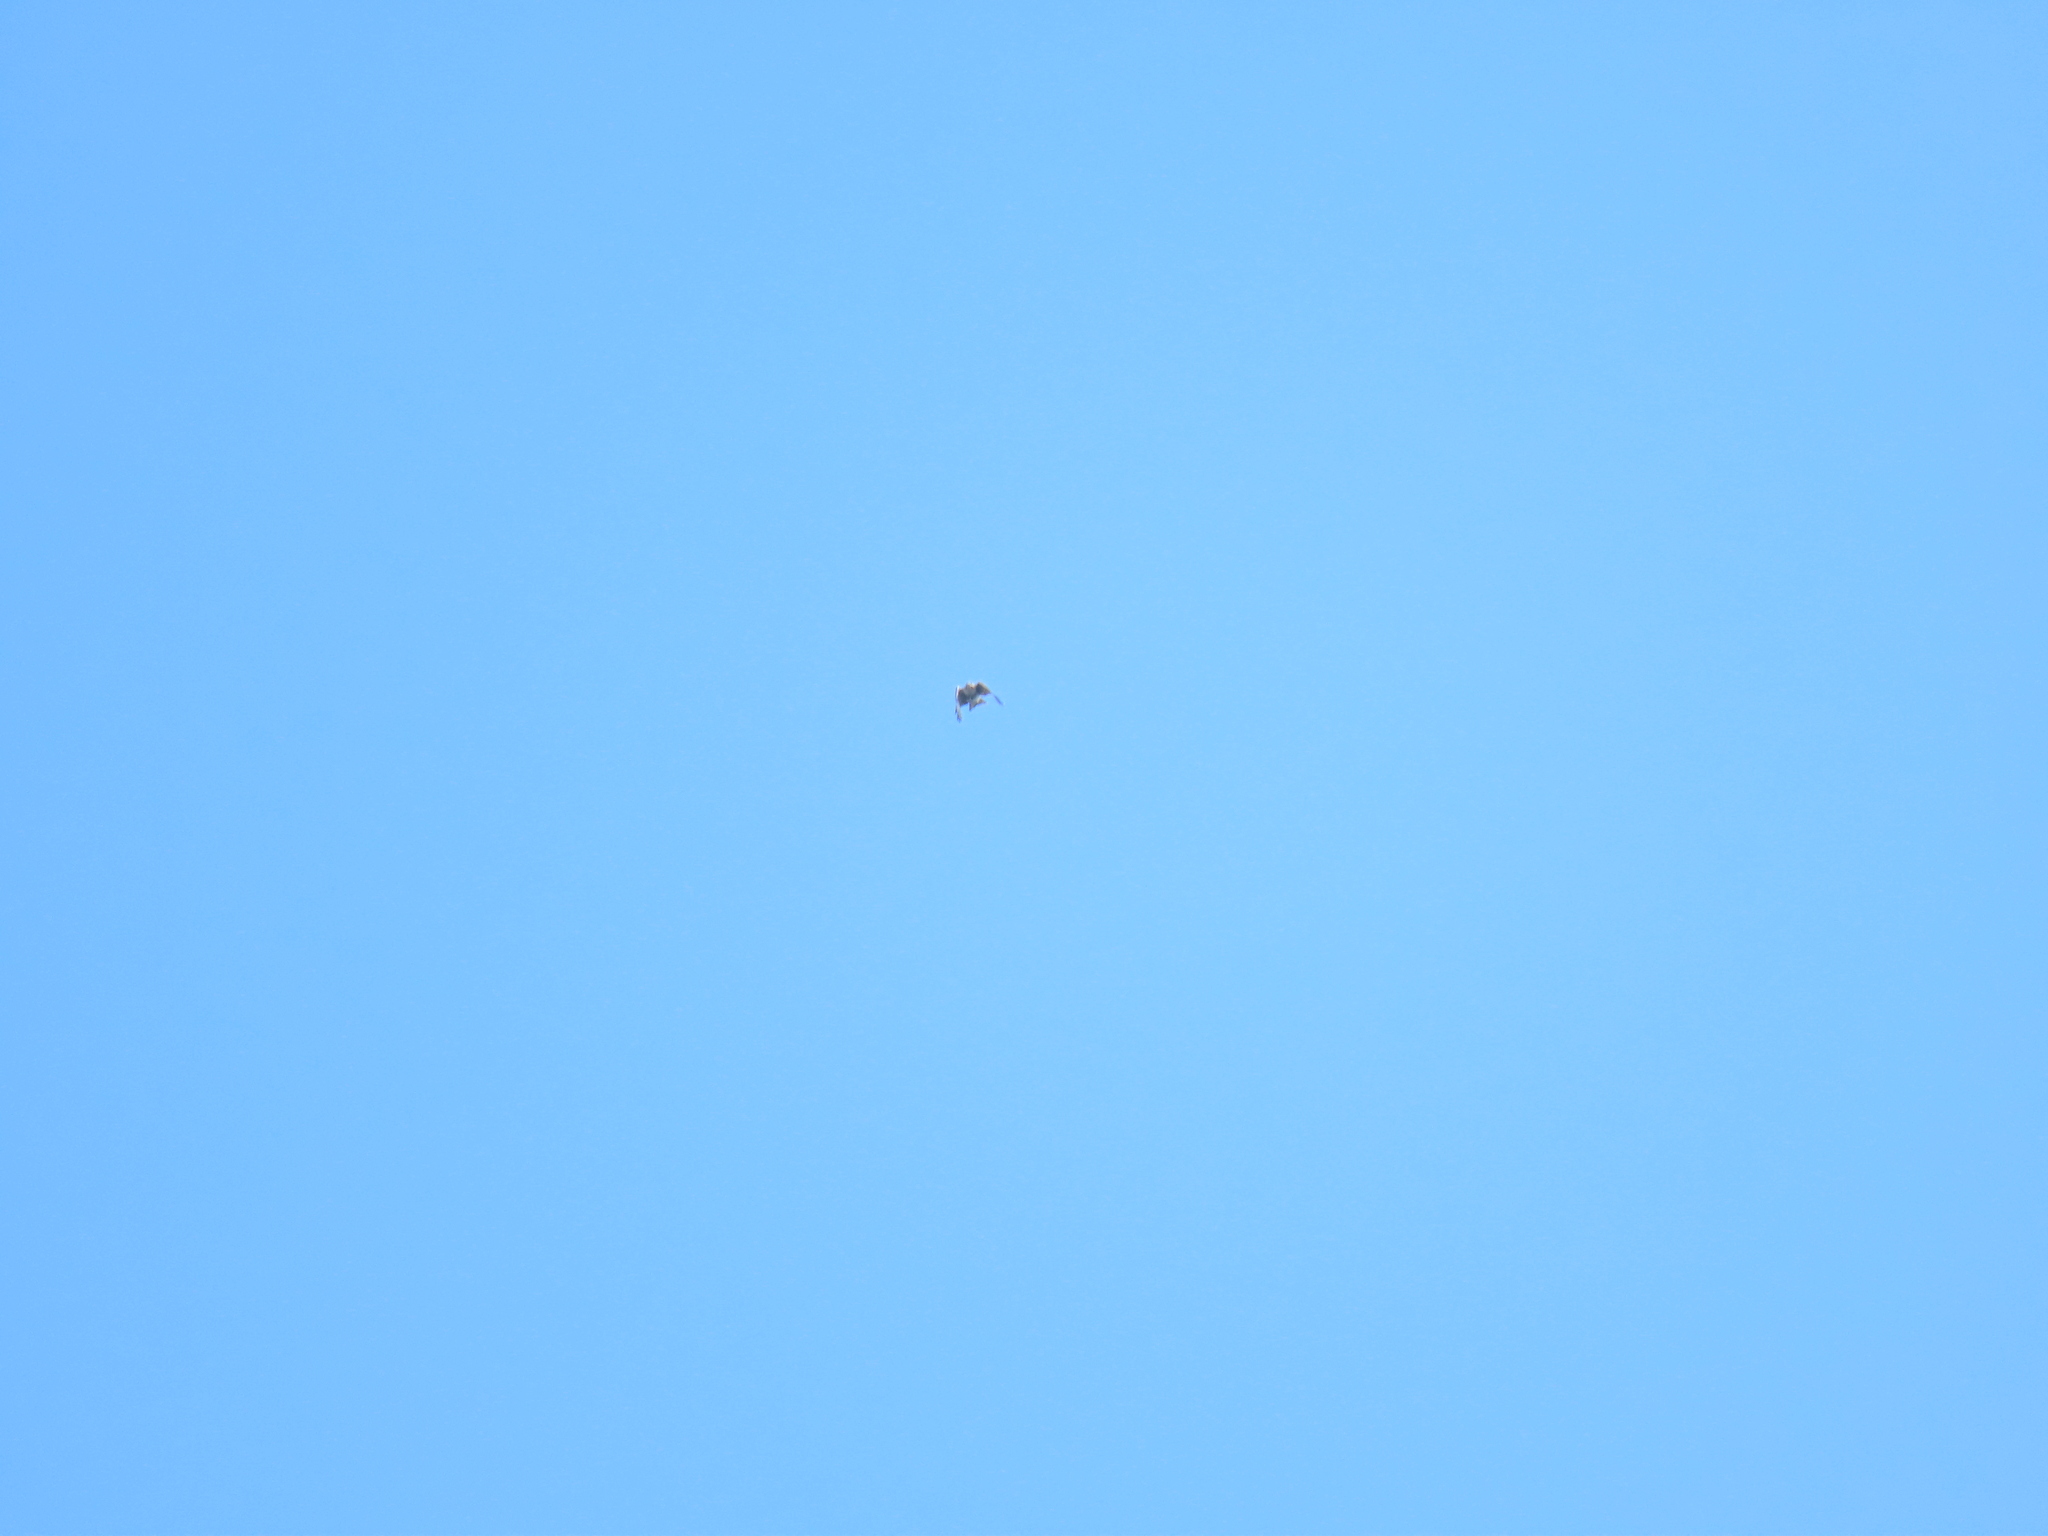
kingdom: Animalia
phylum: Chordata
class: Aves
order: Accipitriformes
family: Accipitridae
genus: Buteo
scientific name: Buteo jamaicensis
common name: Red-tailed hawk
